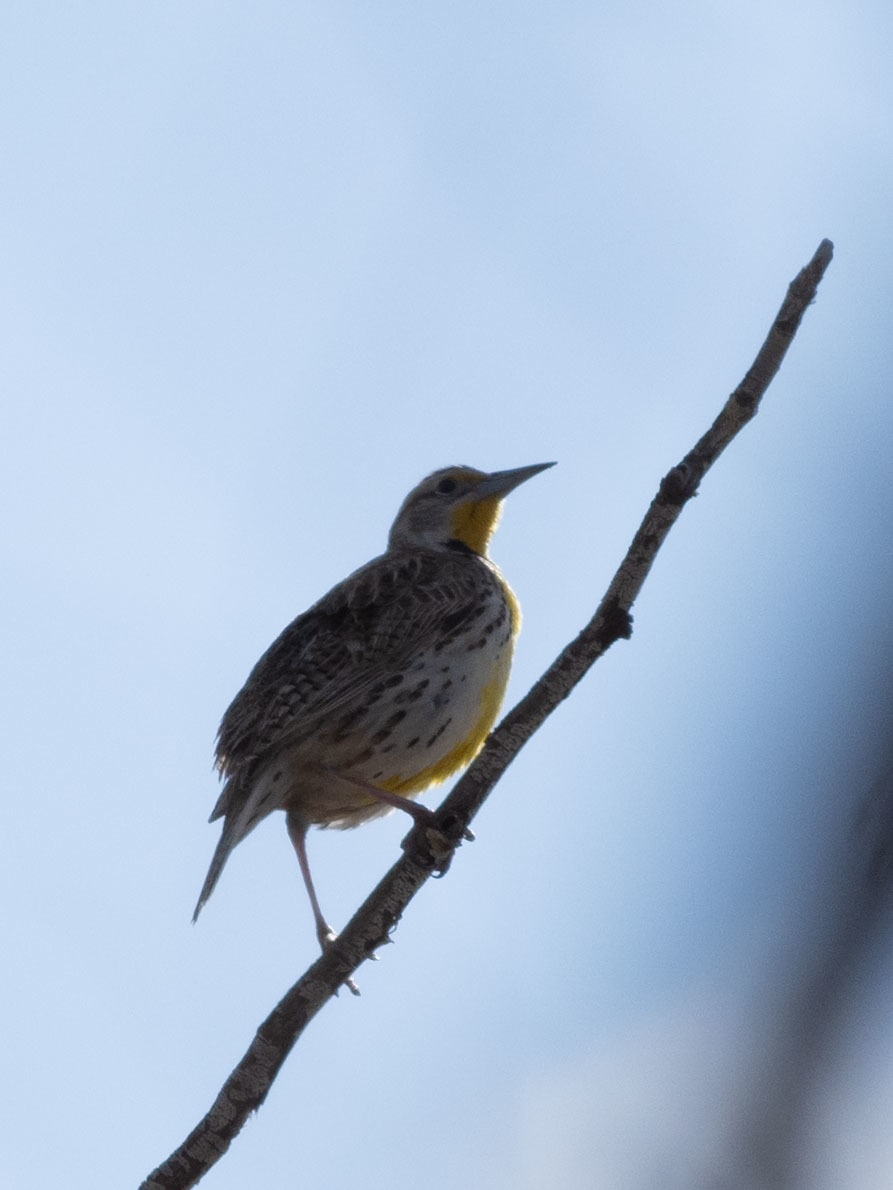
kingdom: Animalia
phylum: Chordata
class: Aves
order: Passeriformes
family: Icteridae
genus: Sturnella
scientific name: Sturnella neglecta
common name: Western meadowlark
